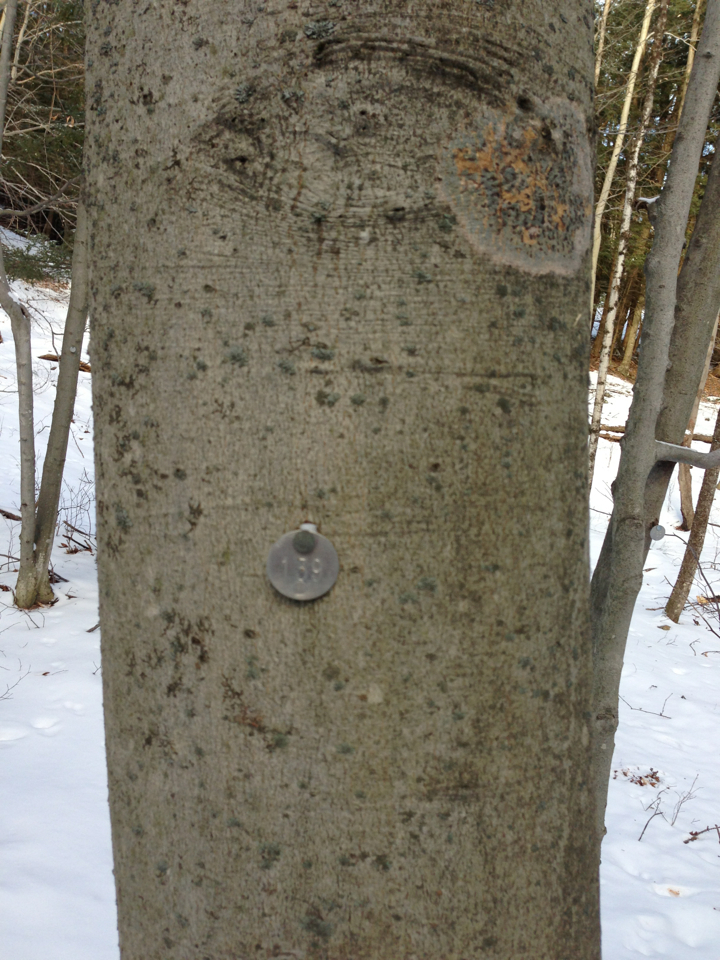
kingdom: Plantae
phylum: Tracheophyta
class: Magnoliopsida
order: Fagales
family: Fagaceae
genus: Fagus
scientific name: Fagus grandifolia
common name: American beech
